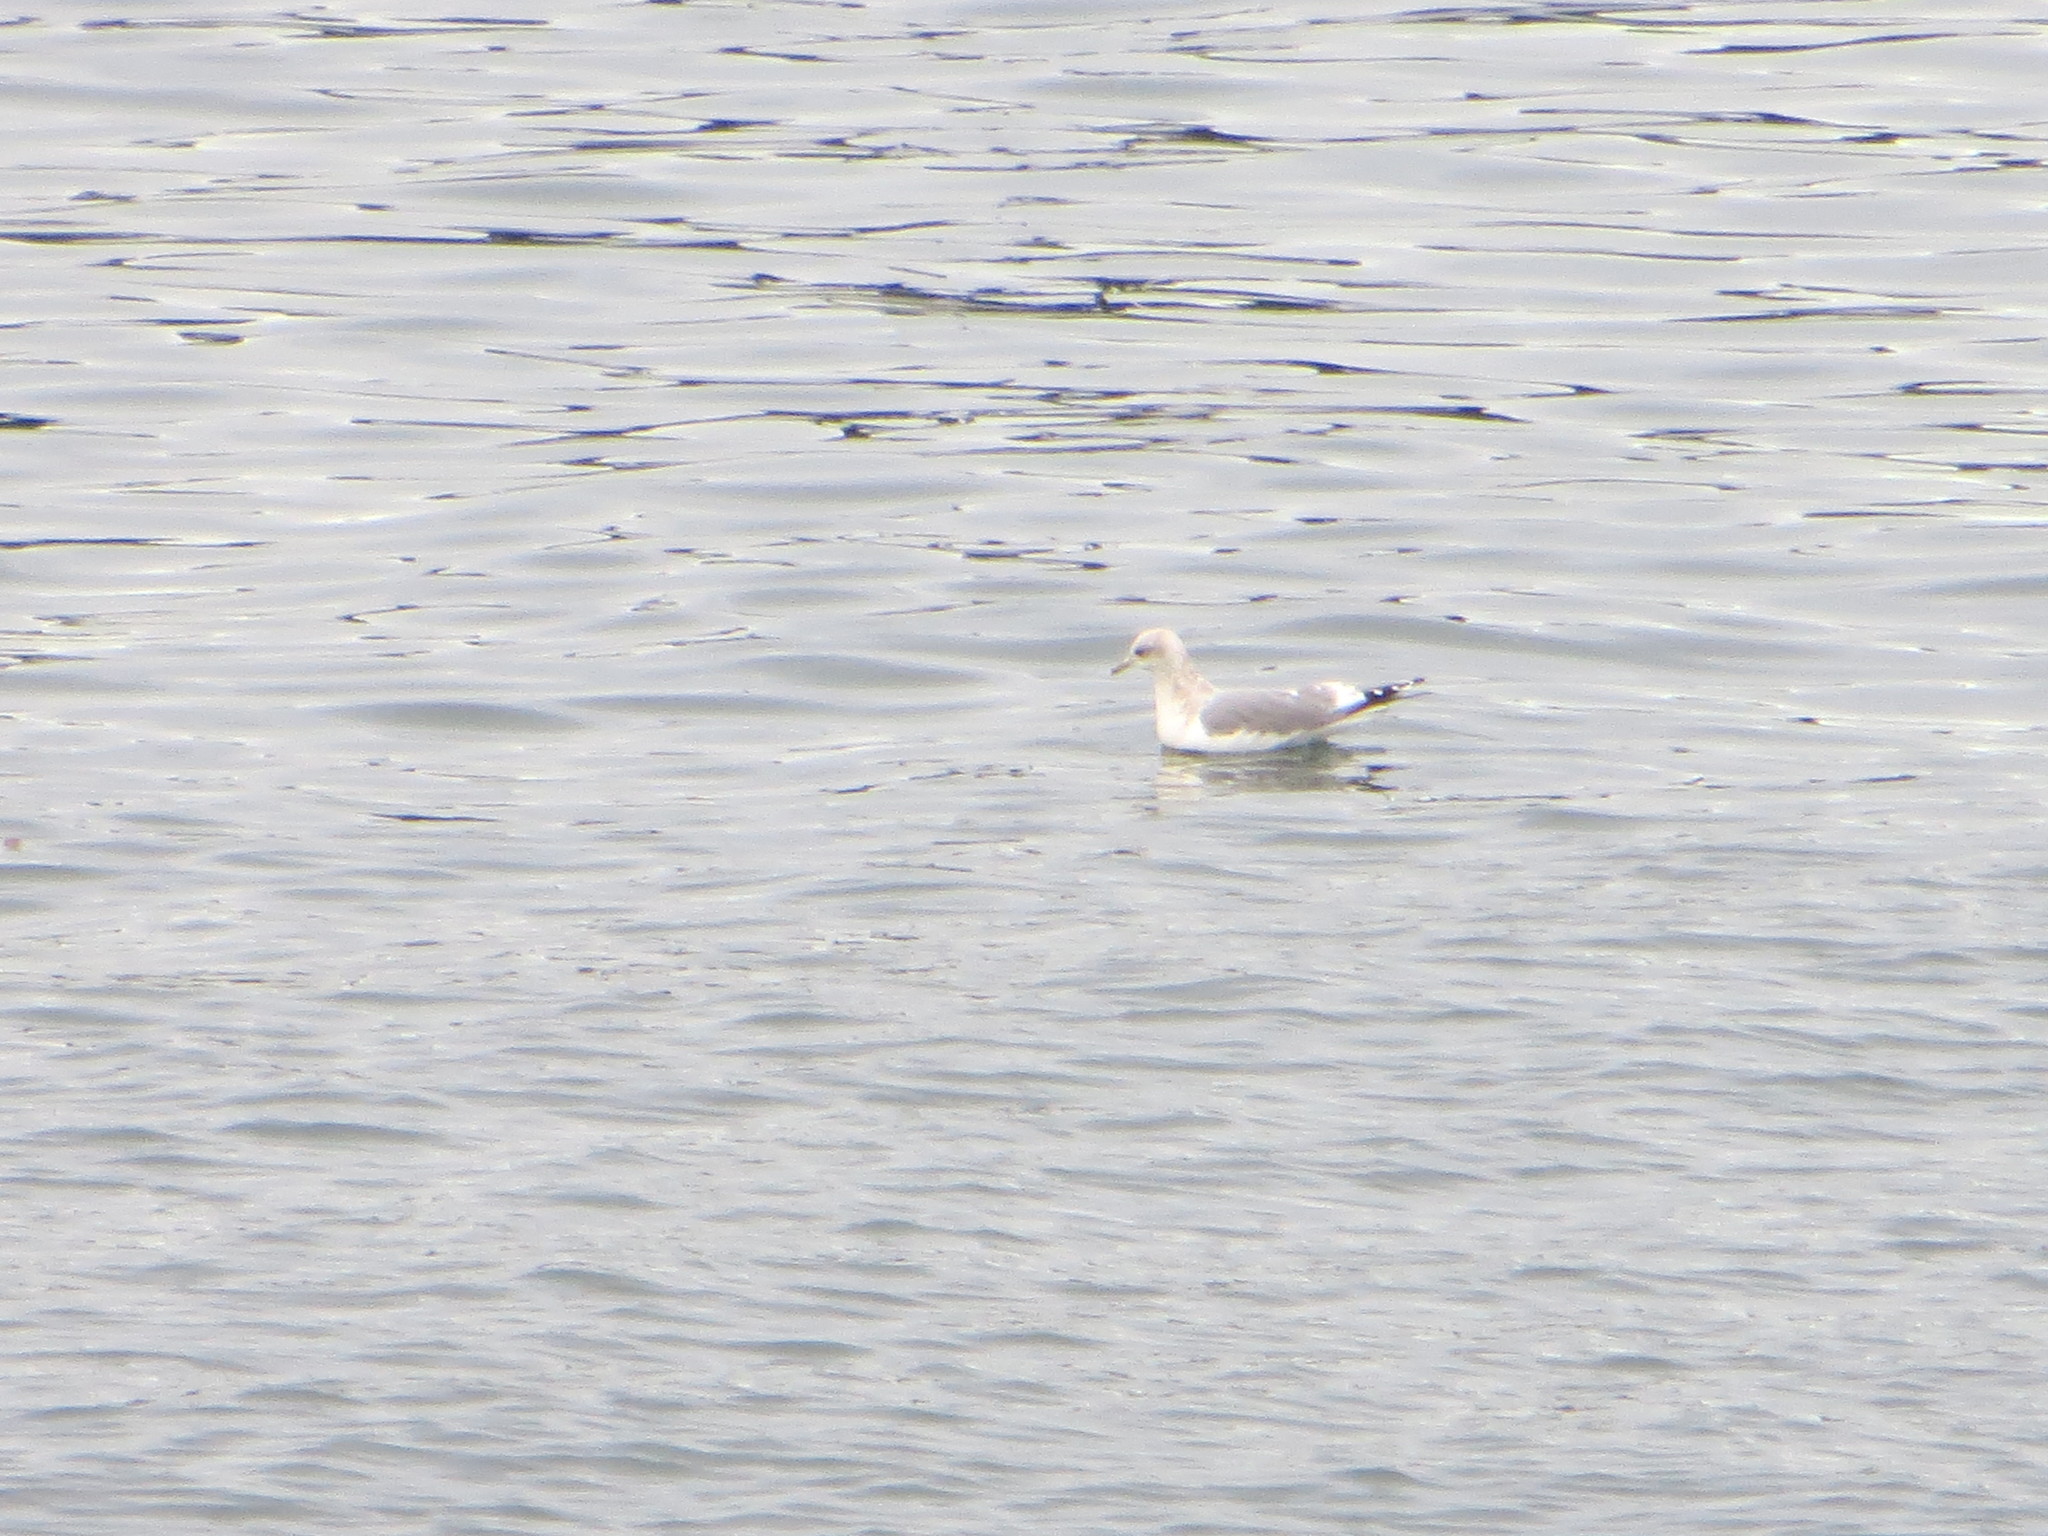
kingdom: Animalia
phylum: Chordata
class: Aves
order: Charadriiformes
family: Laridae
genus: Larus
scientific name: Larus brachyrhynchus
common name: Short-billed gull
